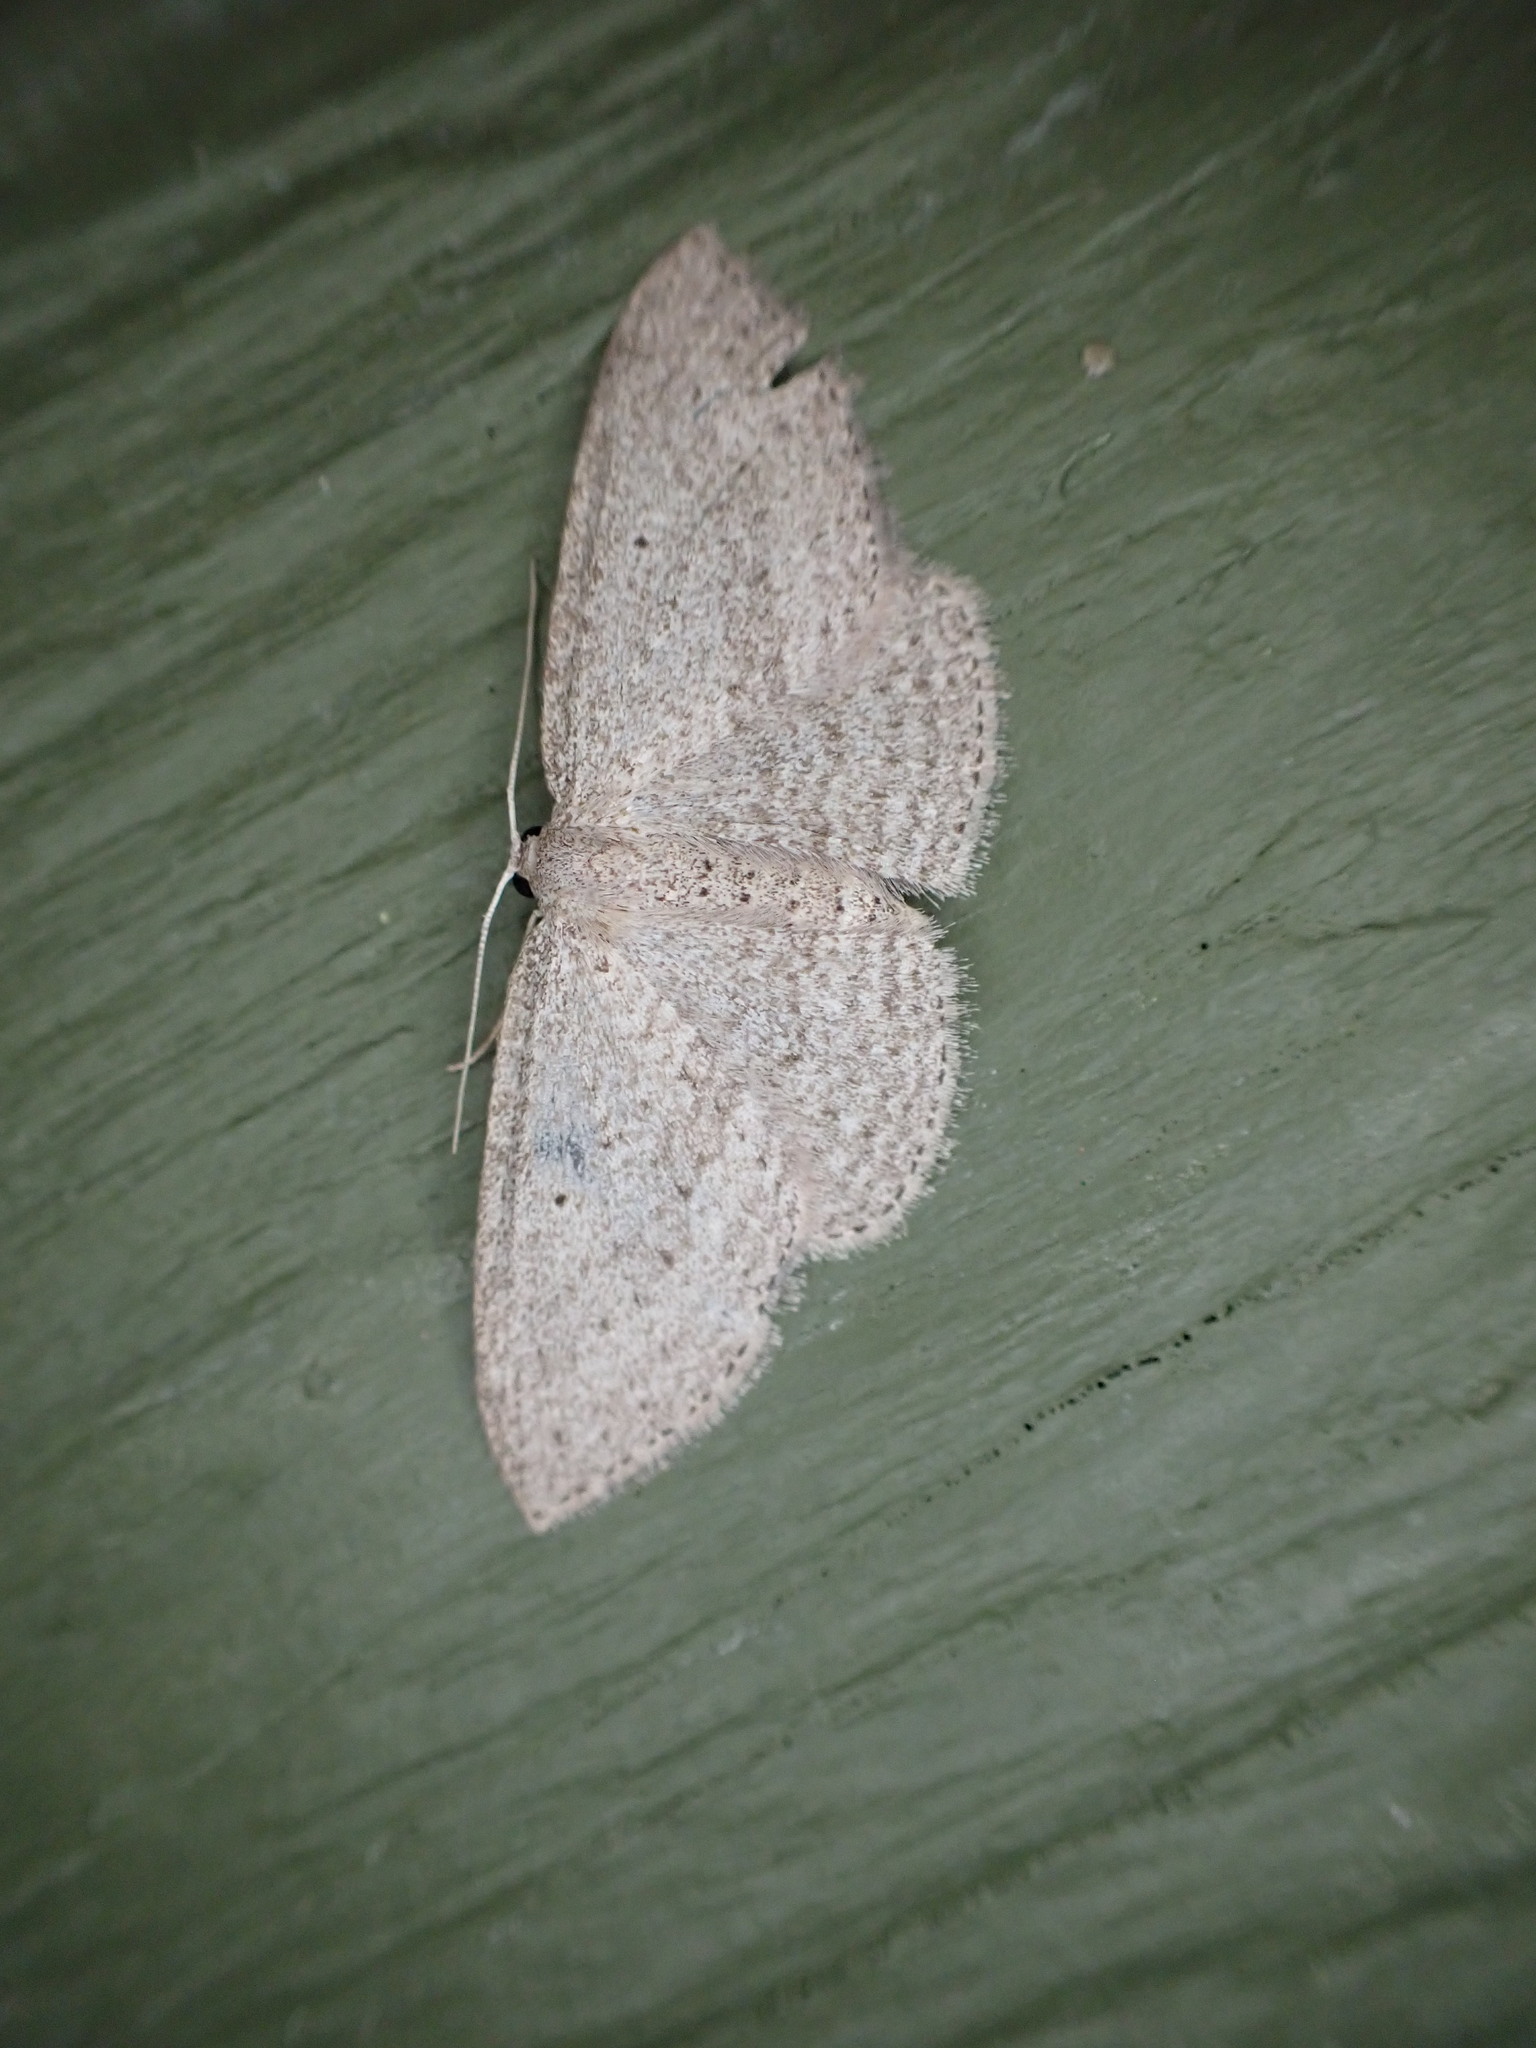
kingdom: Animalia
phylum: Arthropoda
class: Insecta
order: Lepidoptera
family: Geometridae
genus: Poecilasthena
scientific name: Poecilasthena schistaria
